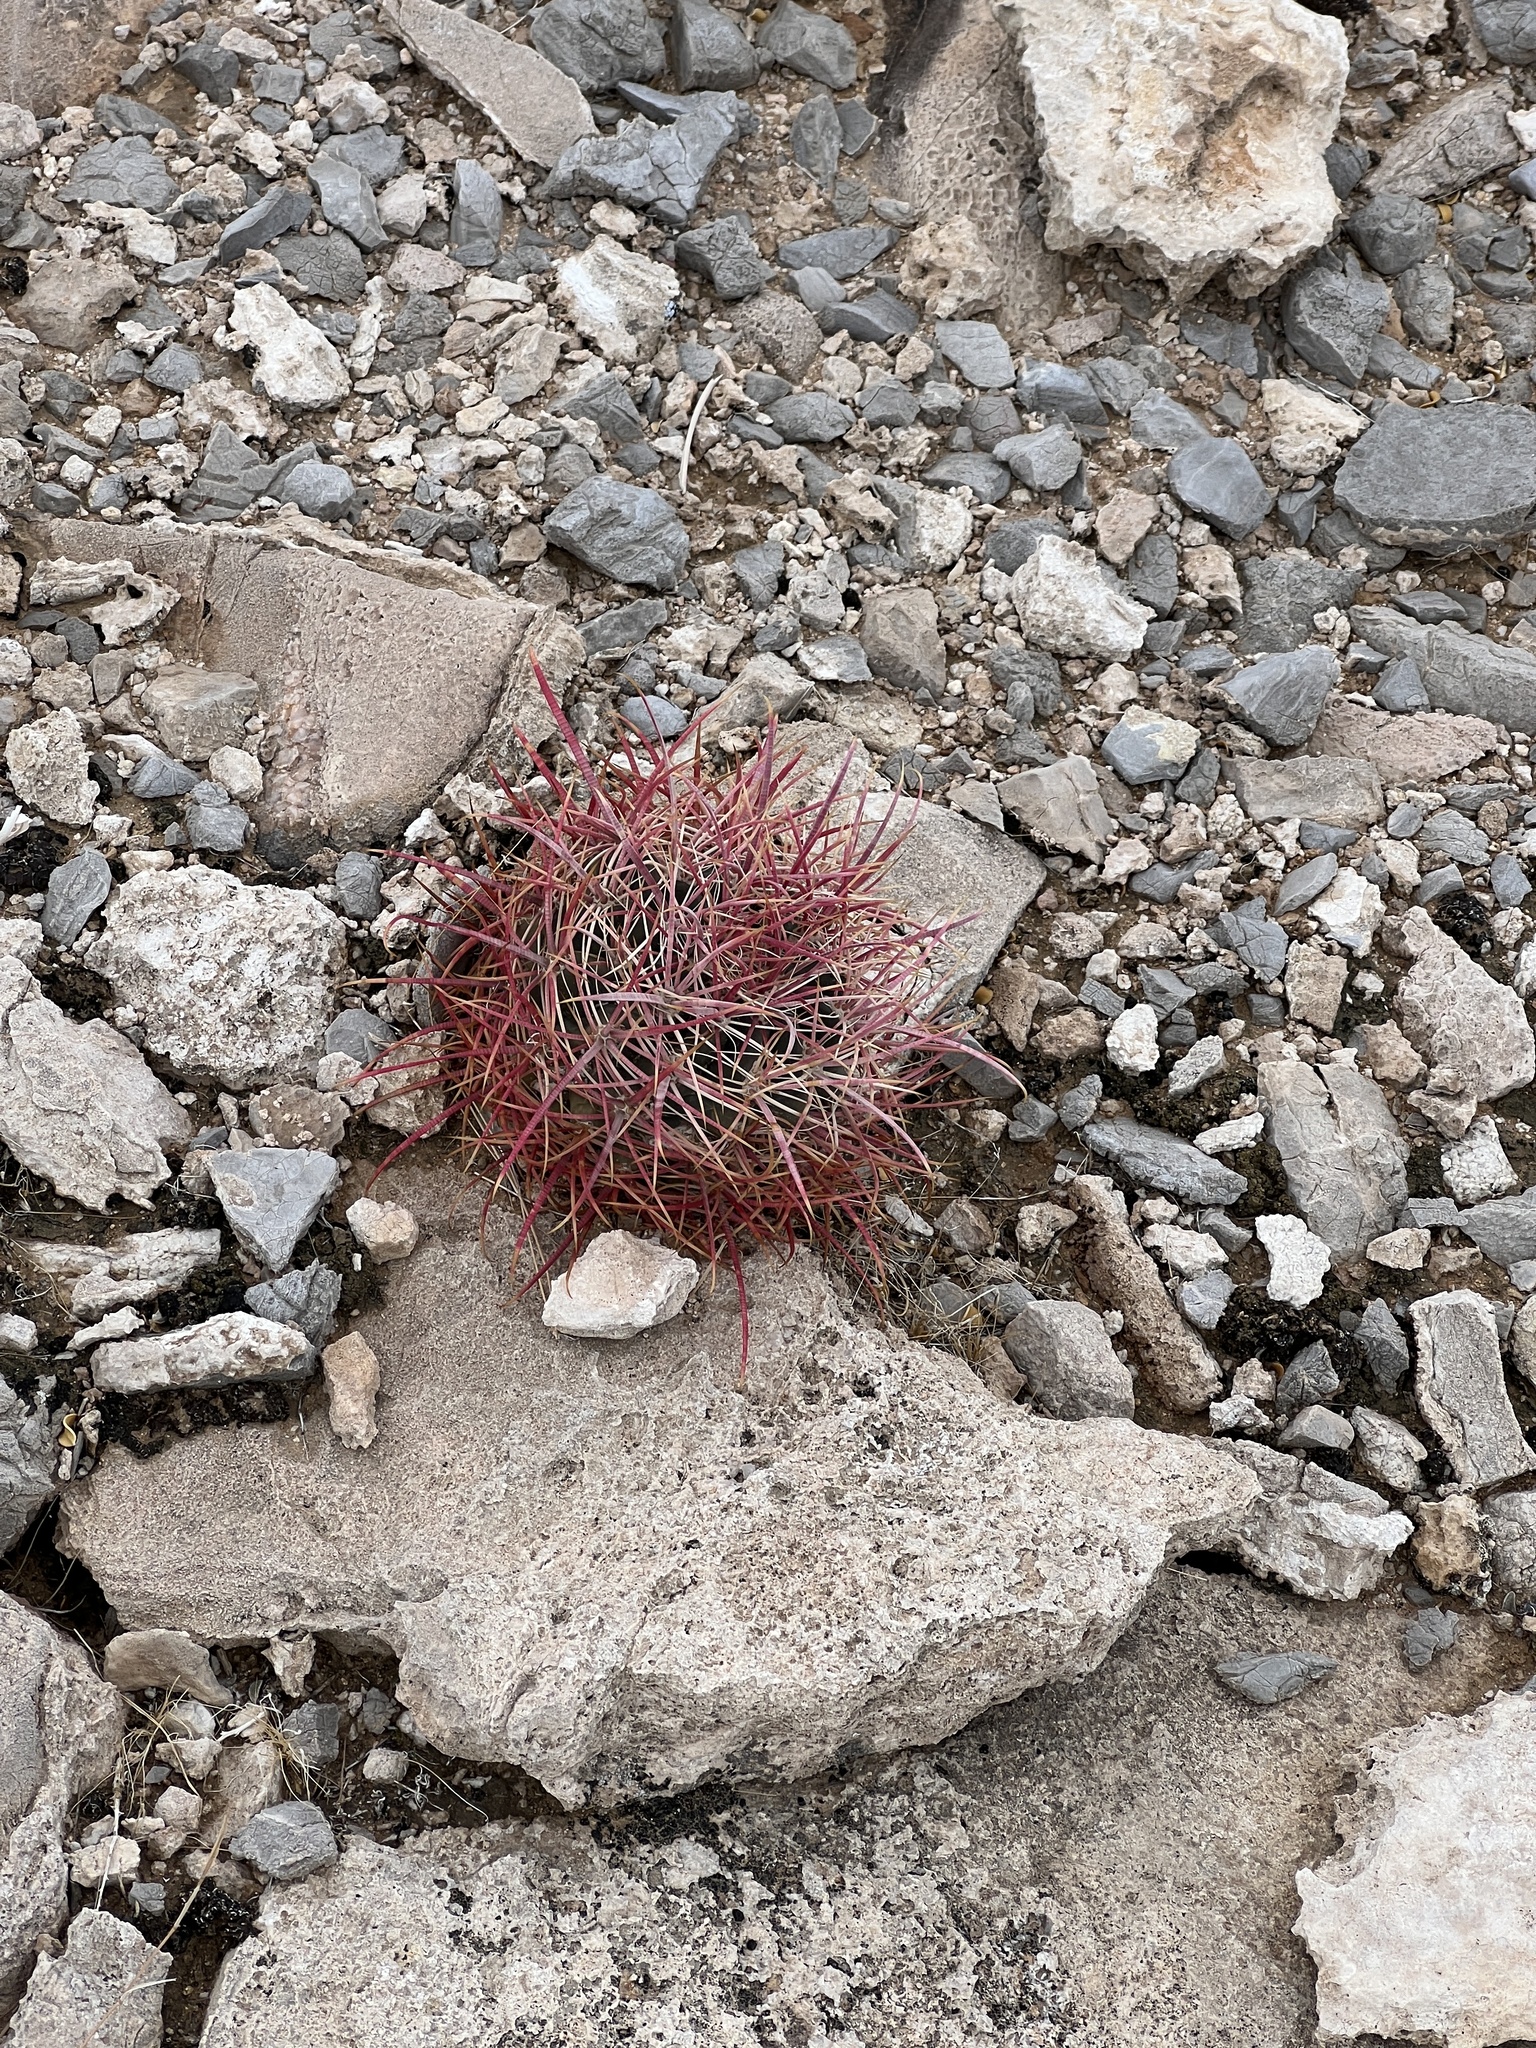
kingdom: Plantae
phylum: Tracheophyta
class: Magnoliopsida
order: Caryophyllales
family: Cactaceae
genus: Ferocactus
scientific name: Ferocactus cylindraceus
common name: California barrel cactus
